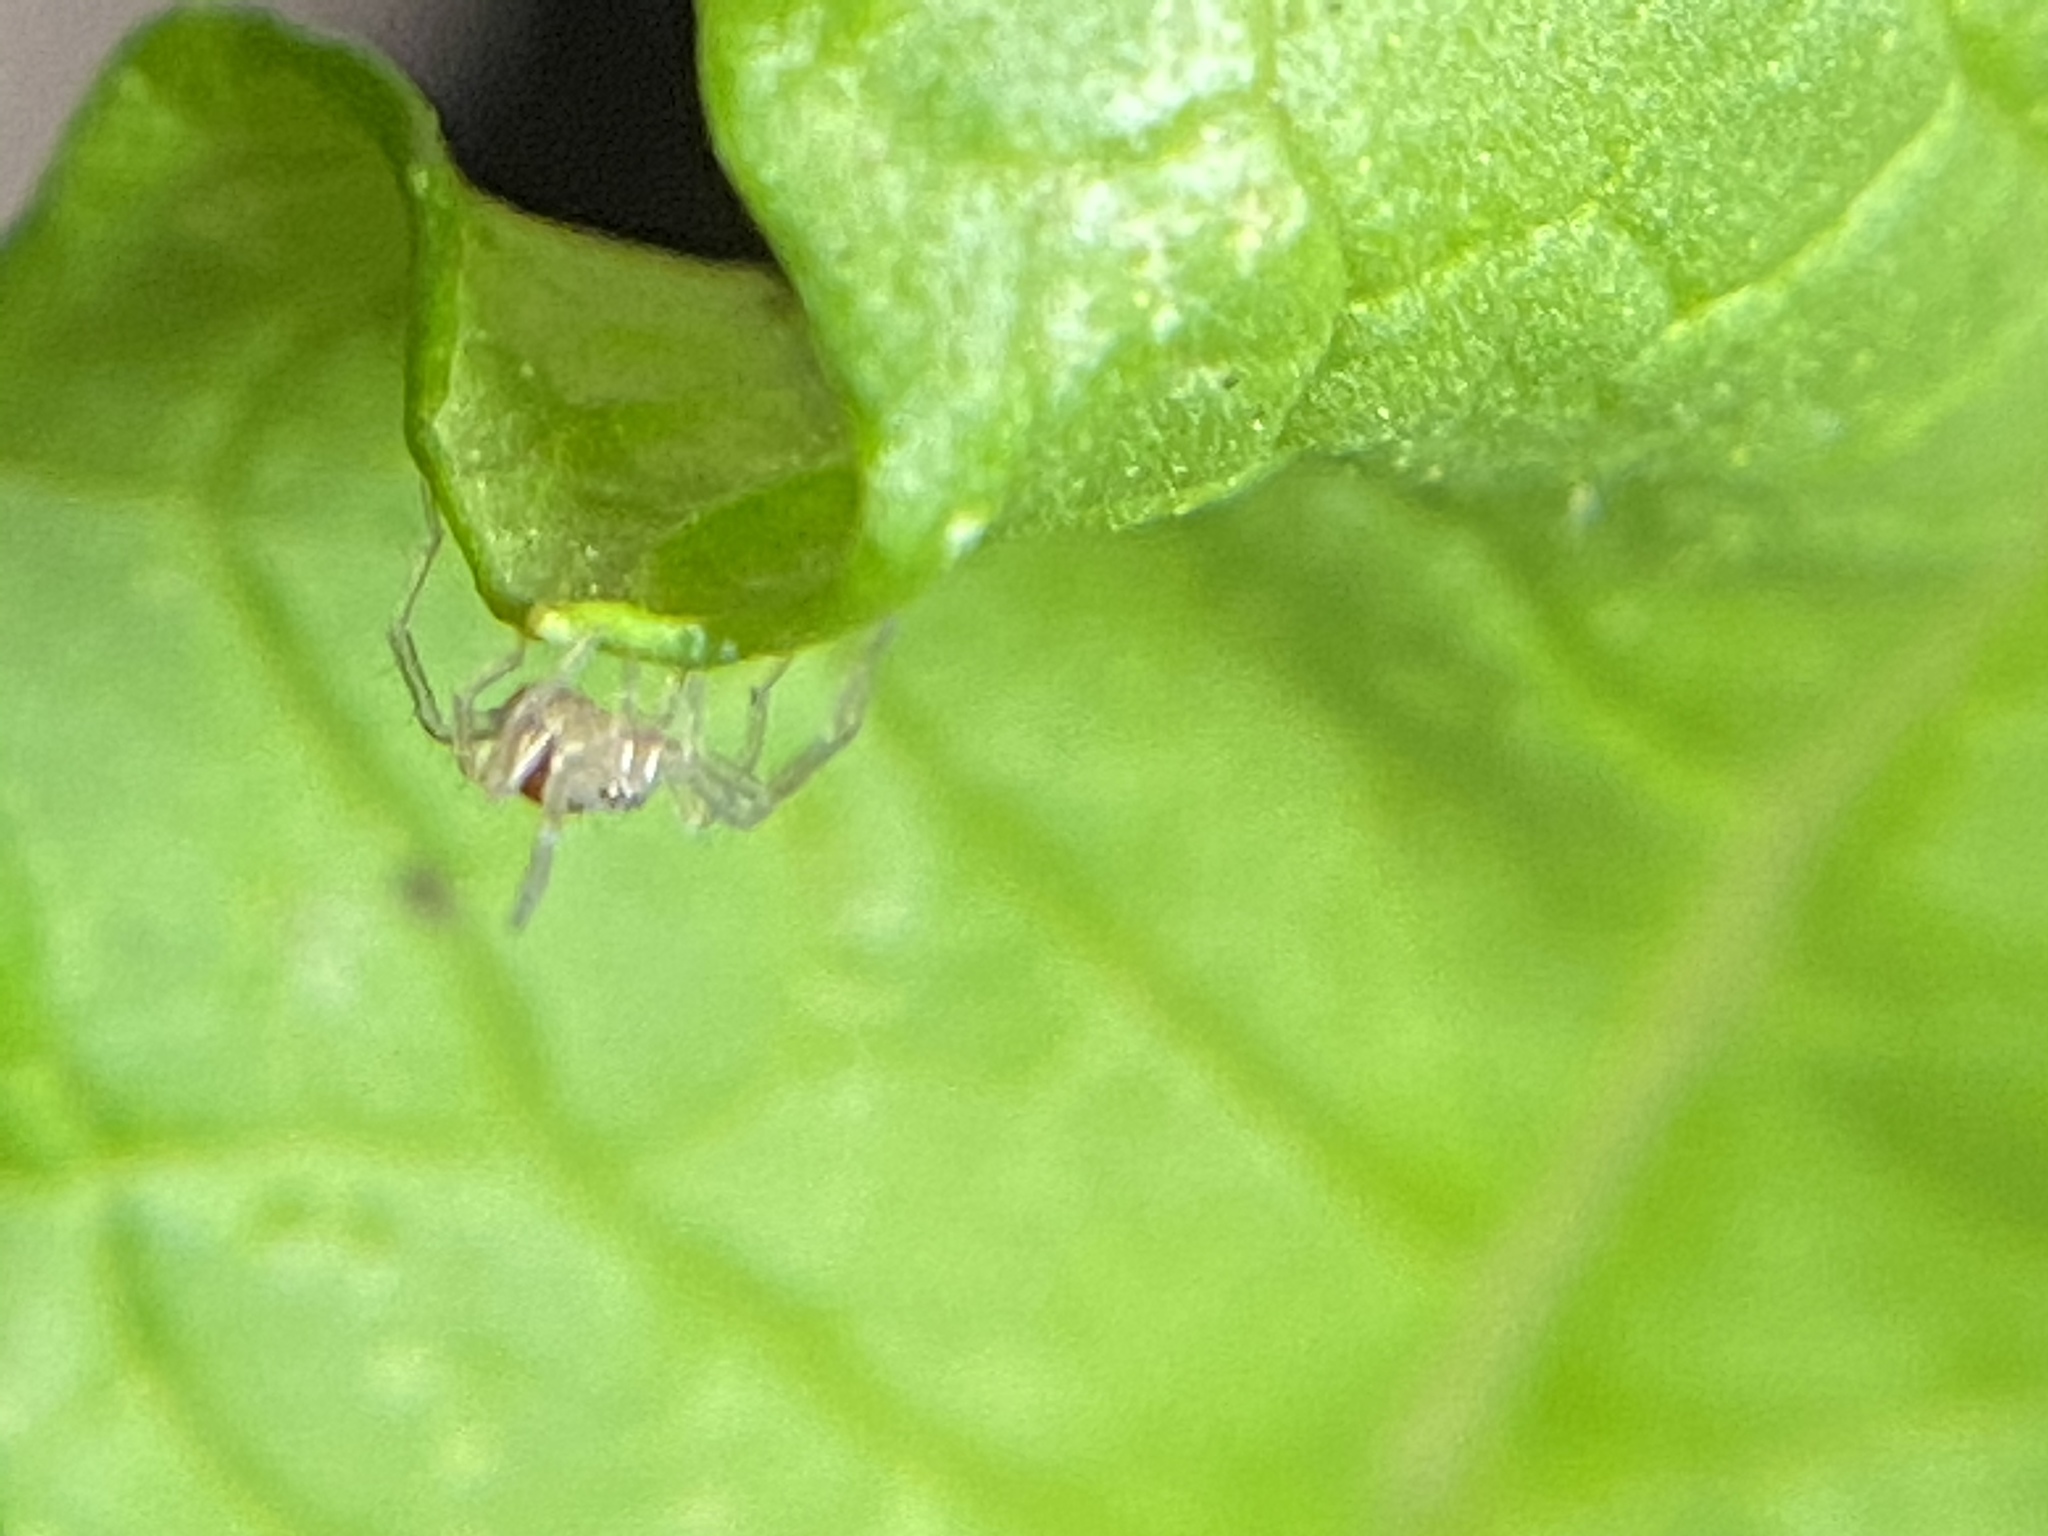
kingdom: Animalia
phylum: Arthropoda
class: Arachnida
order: Araneae
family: Cheiracanthiidae
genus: Cheiracanthium
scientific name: Cheiracanthium mildei
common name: Northern yellow sac spider
